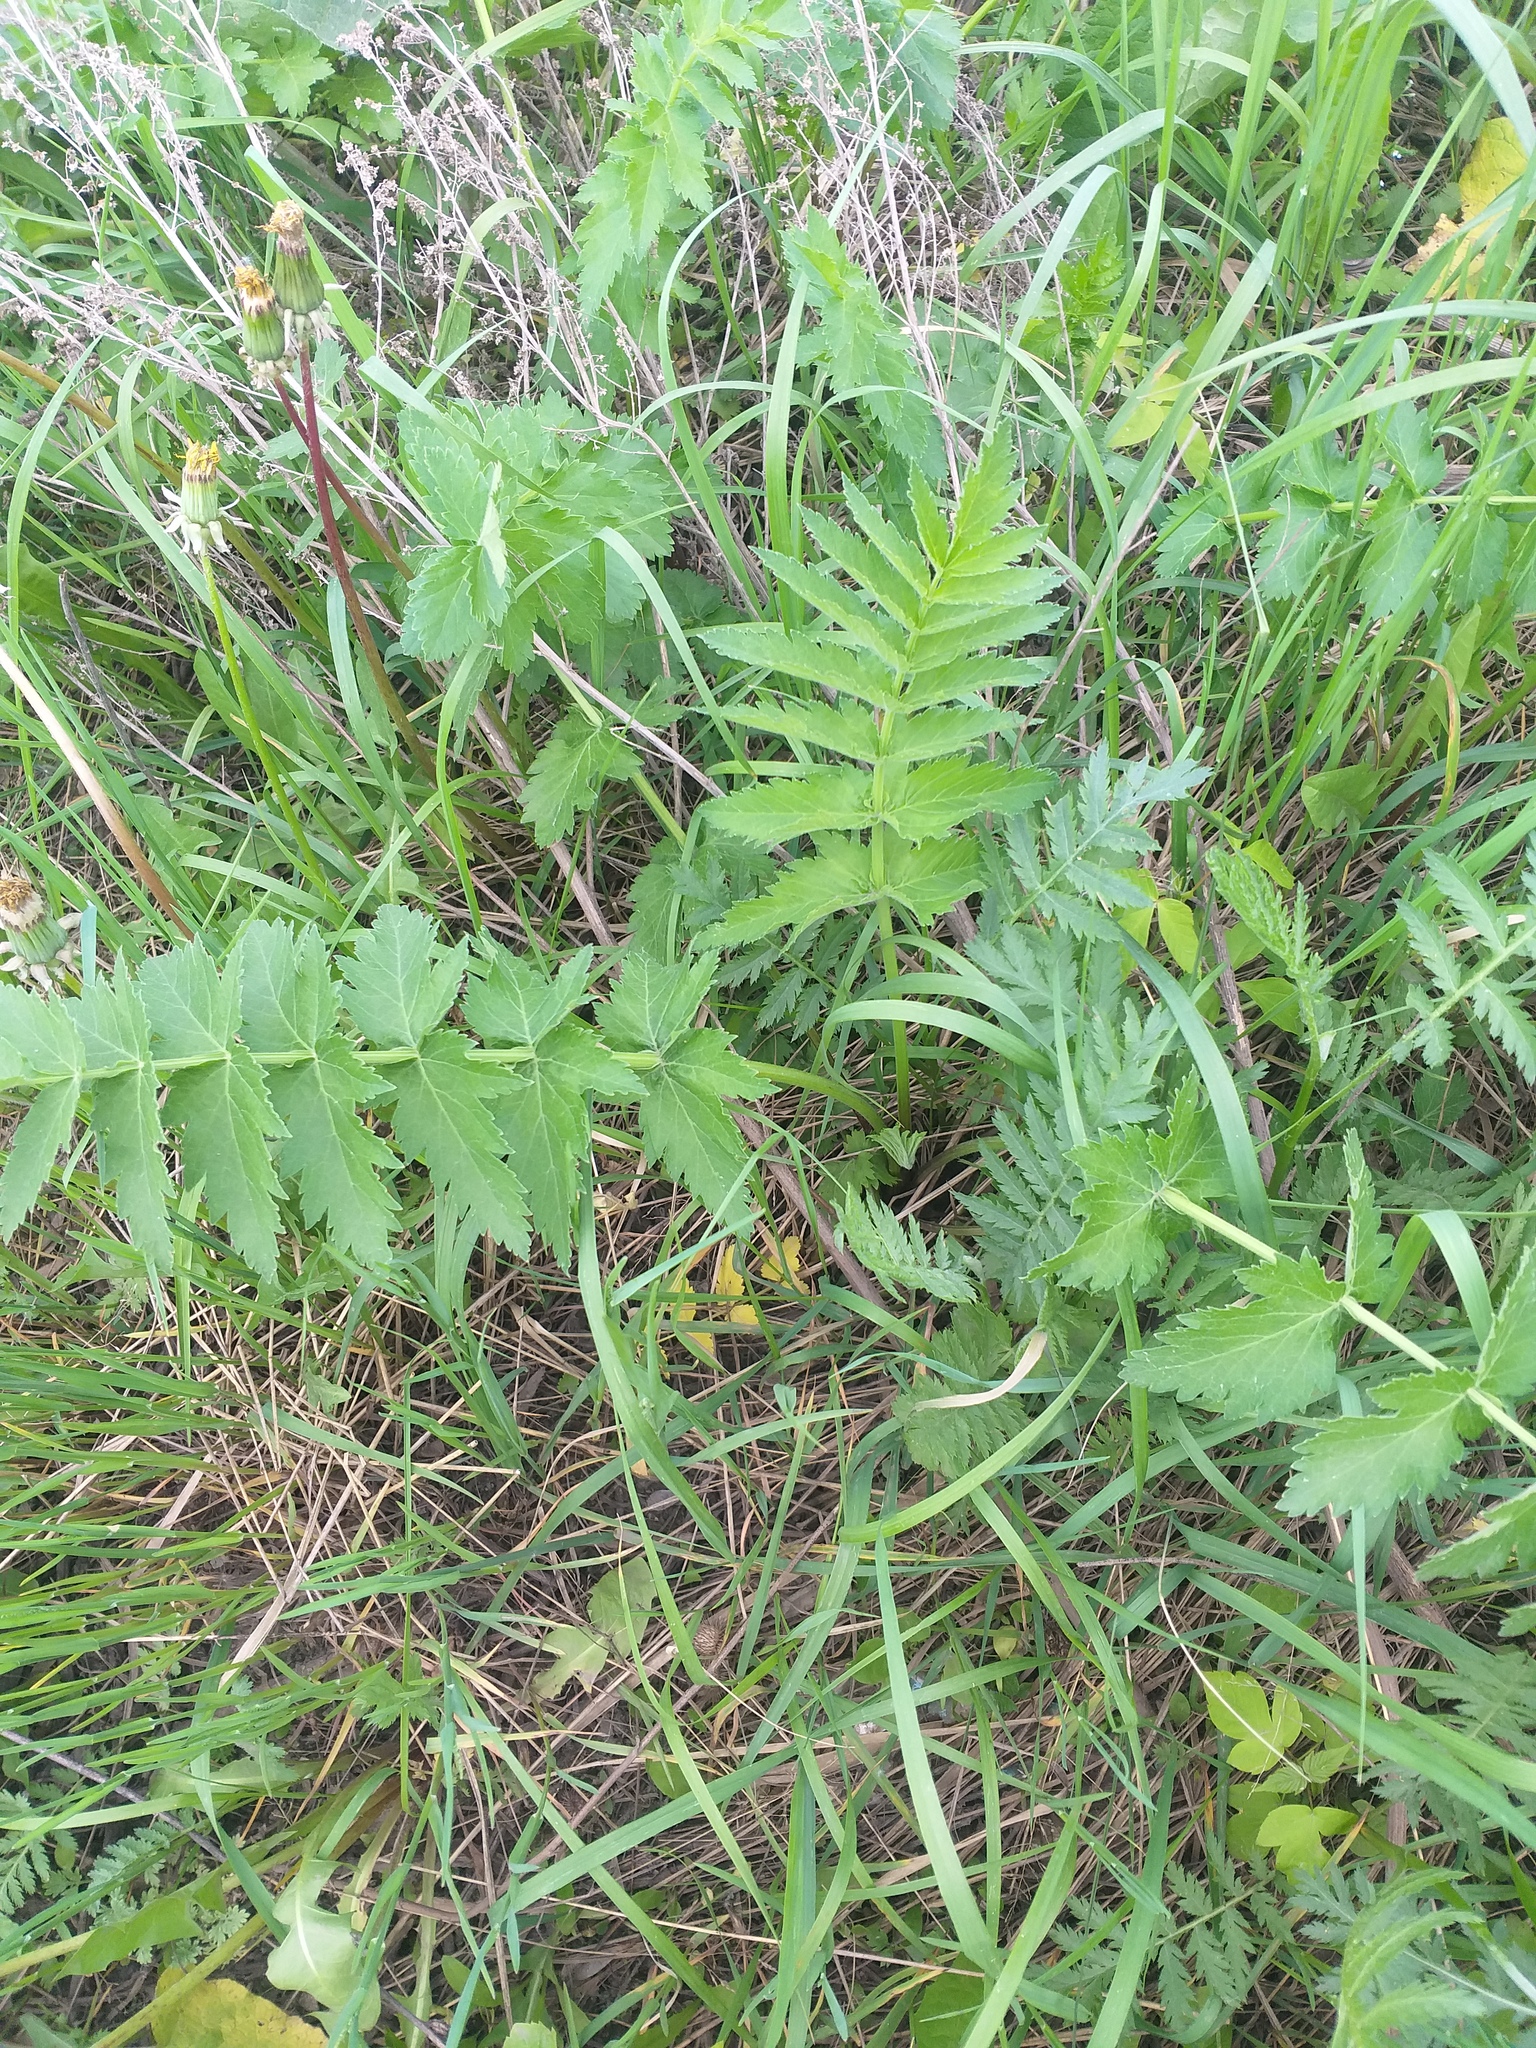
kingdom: Plantae
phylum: Tracheophyta
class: Magnoliopsida
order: Apiales
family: Apiaceae
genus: Pastinaca
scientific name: Pastinaca sativa
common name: Wild parsnip
